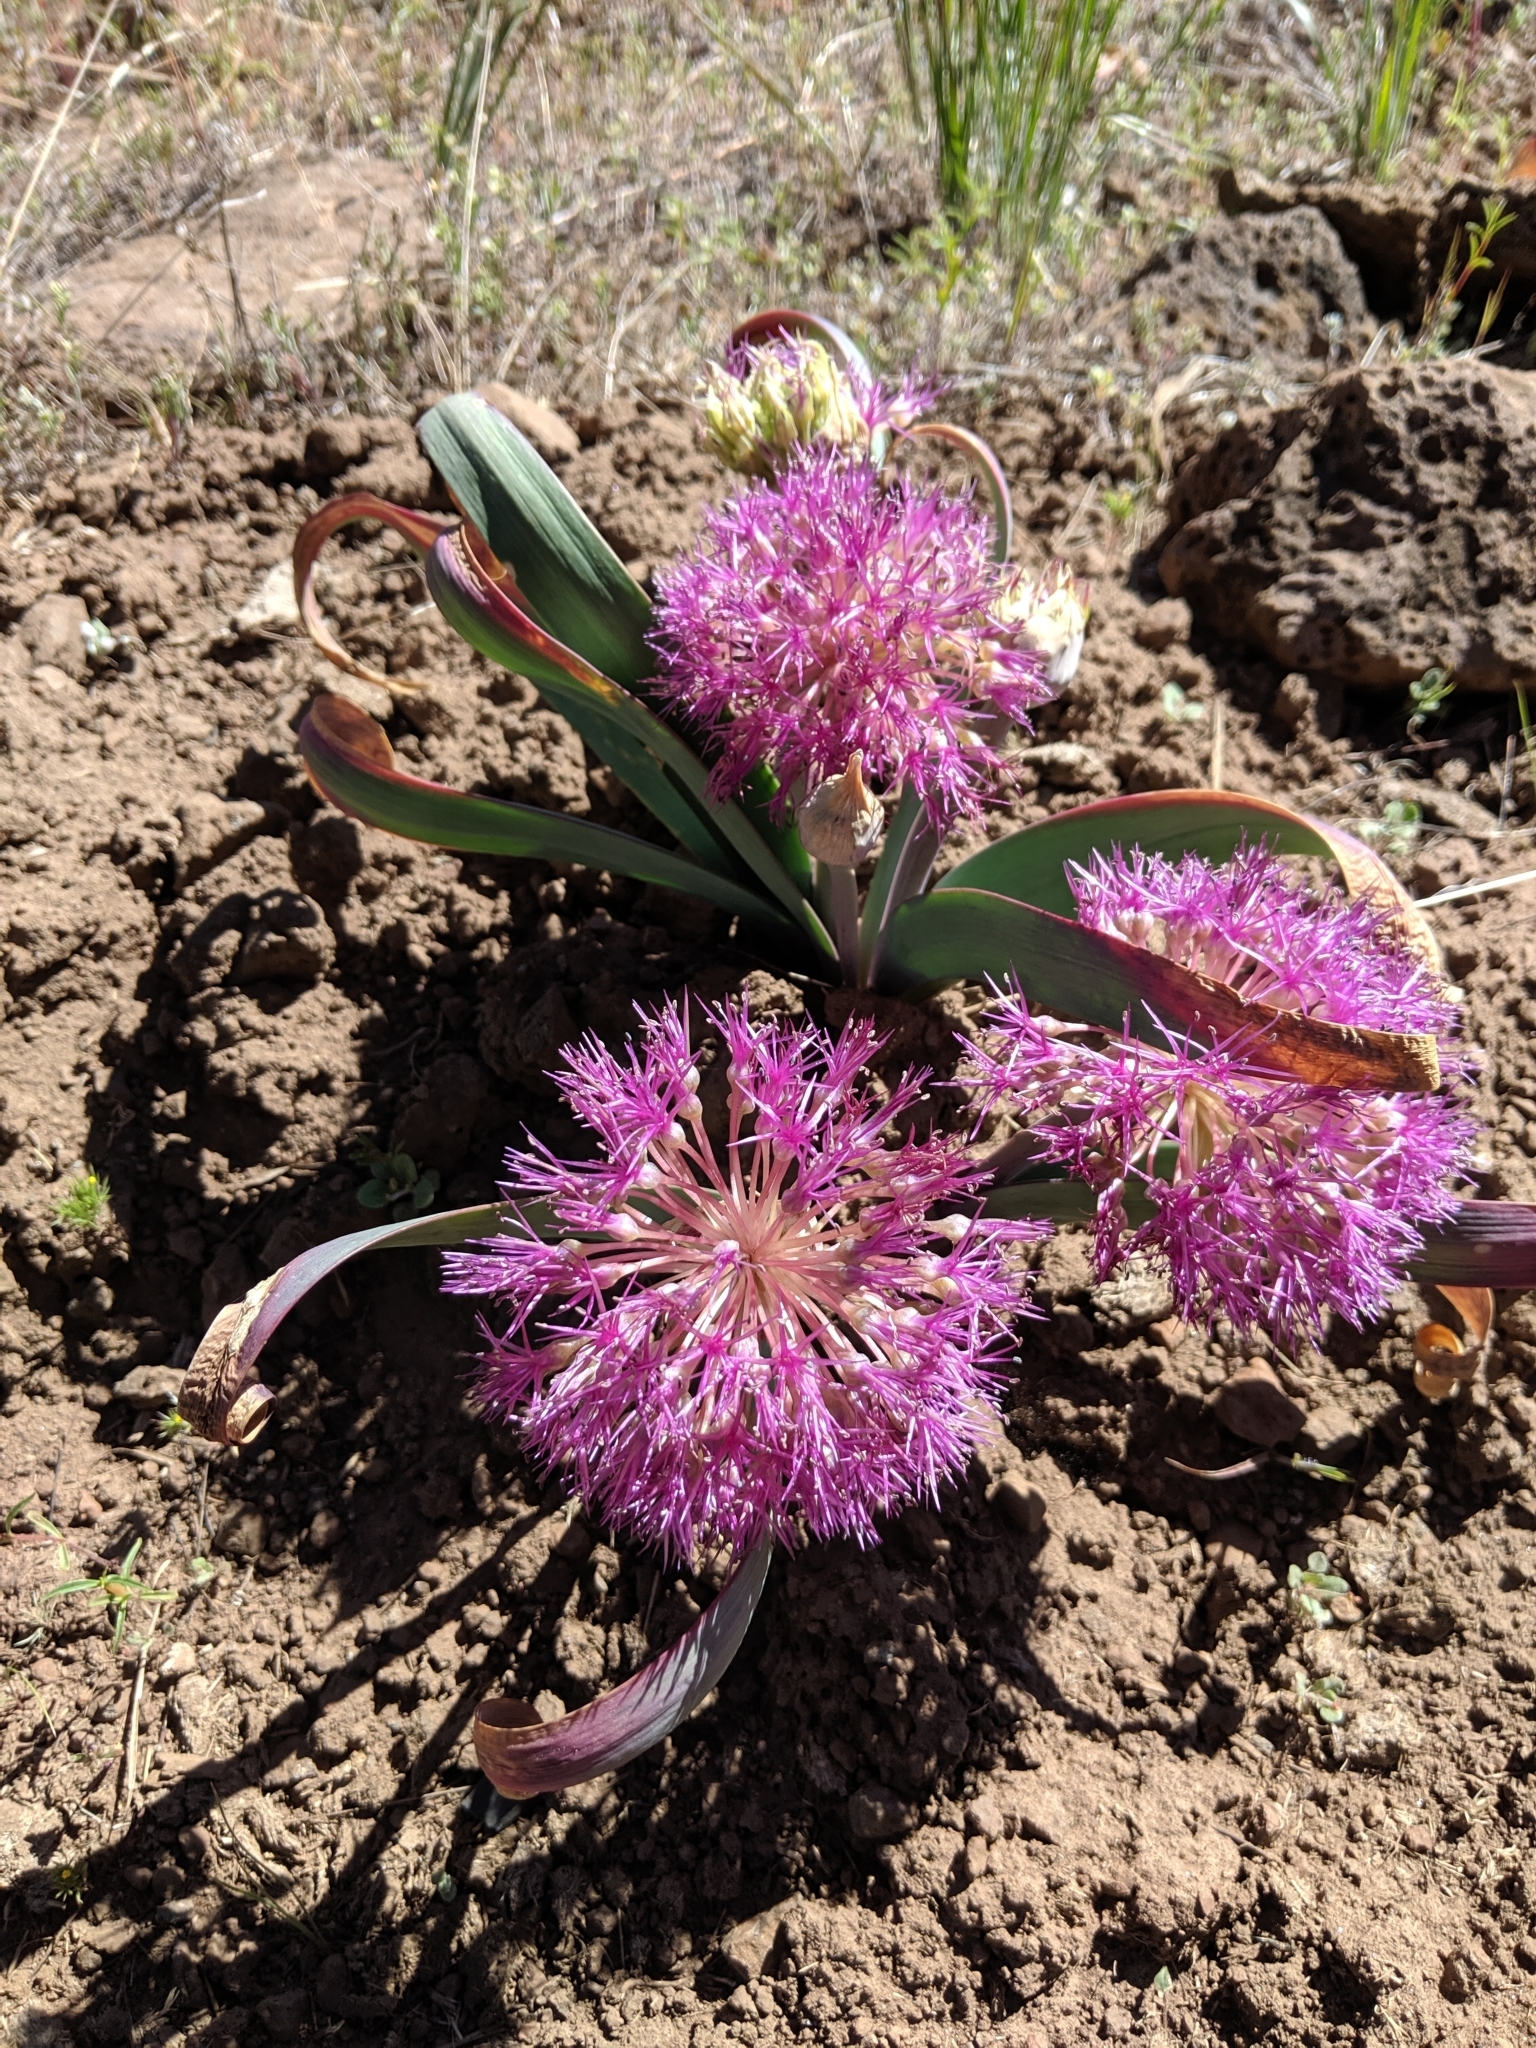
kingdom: Plantae
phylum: Tracheophyta
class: Liliopsida
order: Asparagales
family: Amaryllidaceae
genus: Allium
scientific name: Allium platycaule
